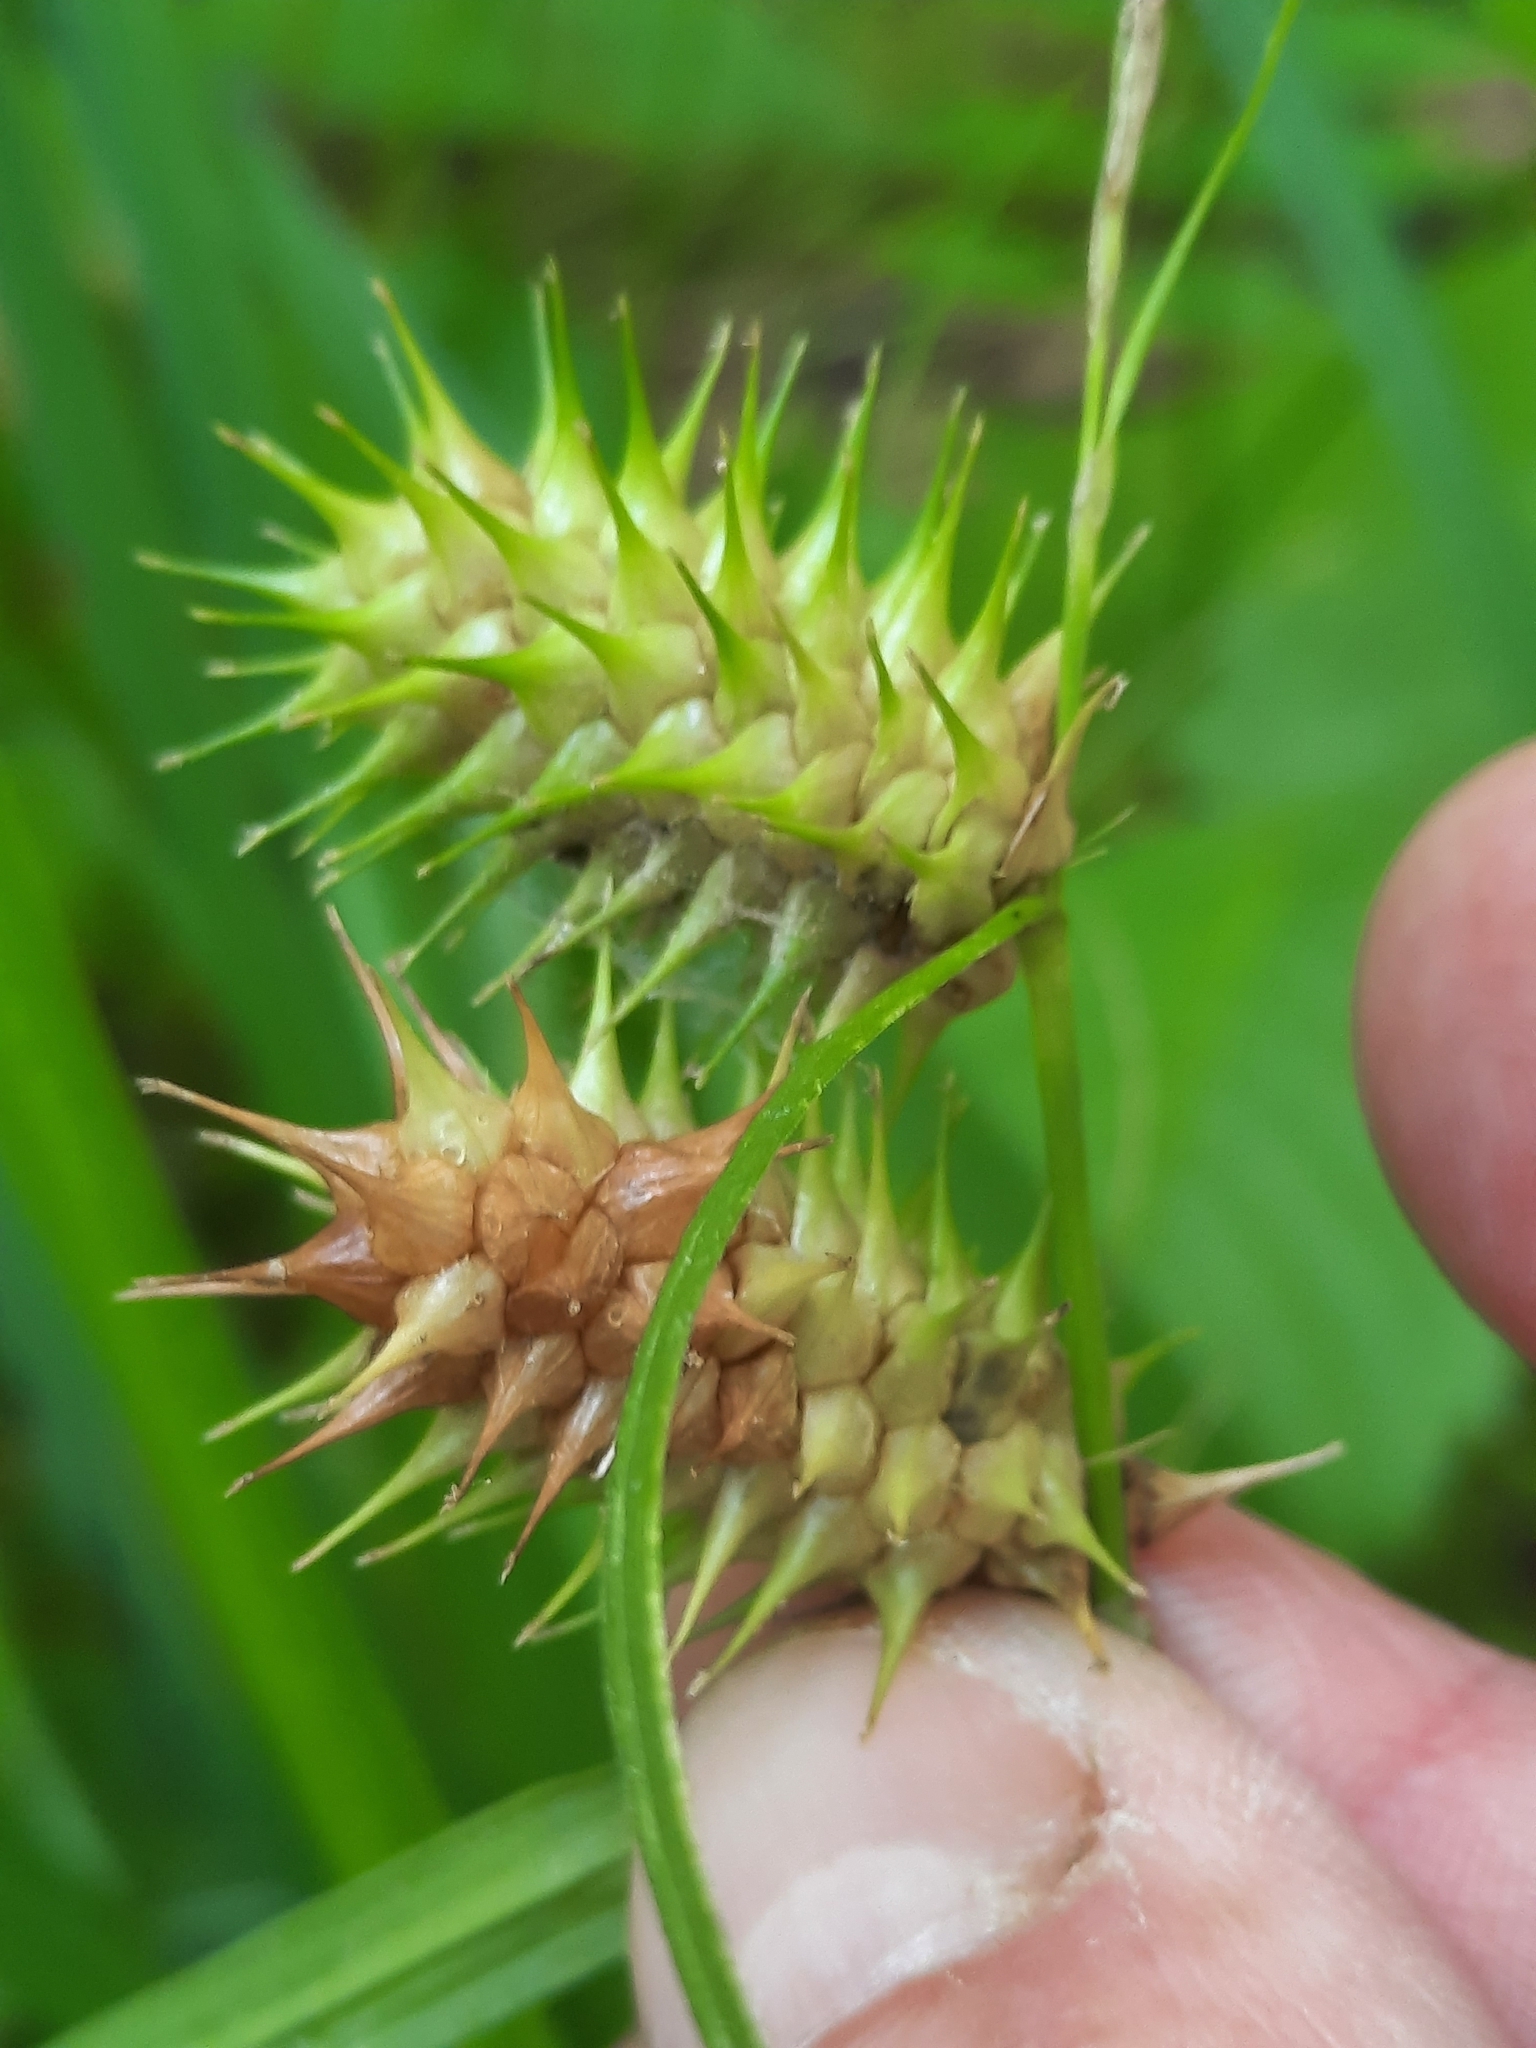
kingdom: Plantae
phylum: Tracheophyta
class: Liliopsida
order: Poales
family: Cyperaceae
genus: Carex
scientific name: Carex lurida
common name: Sallow sedge
